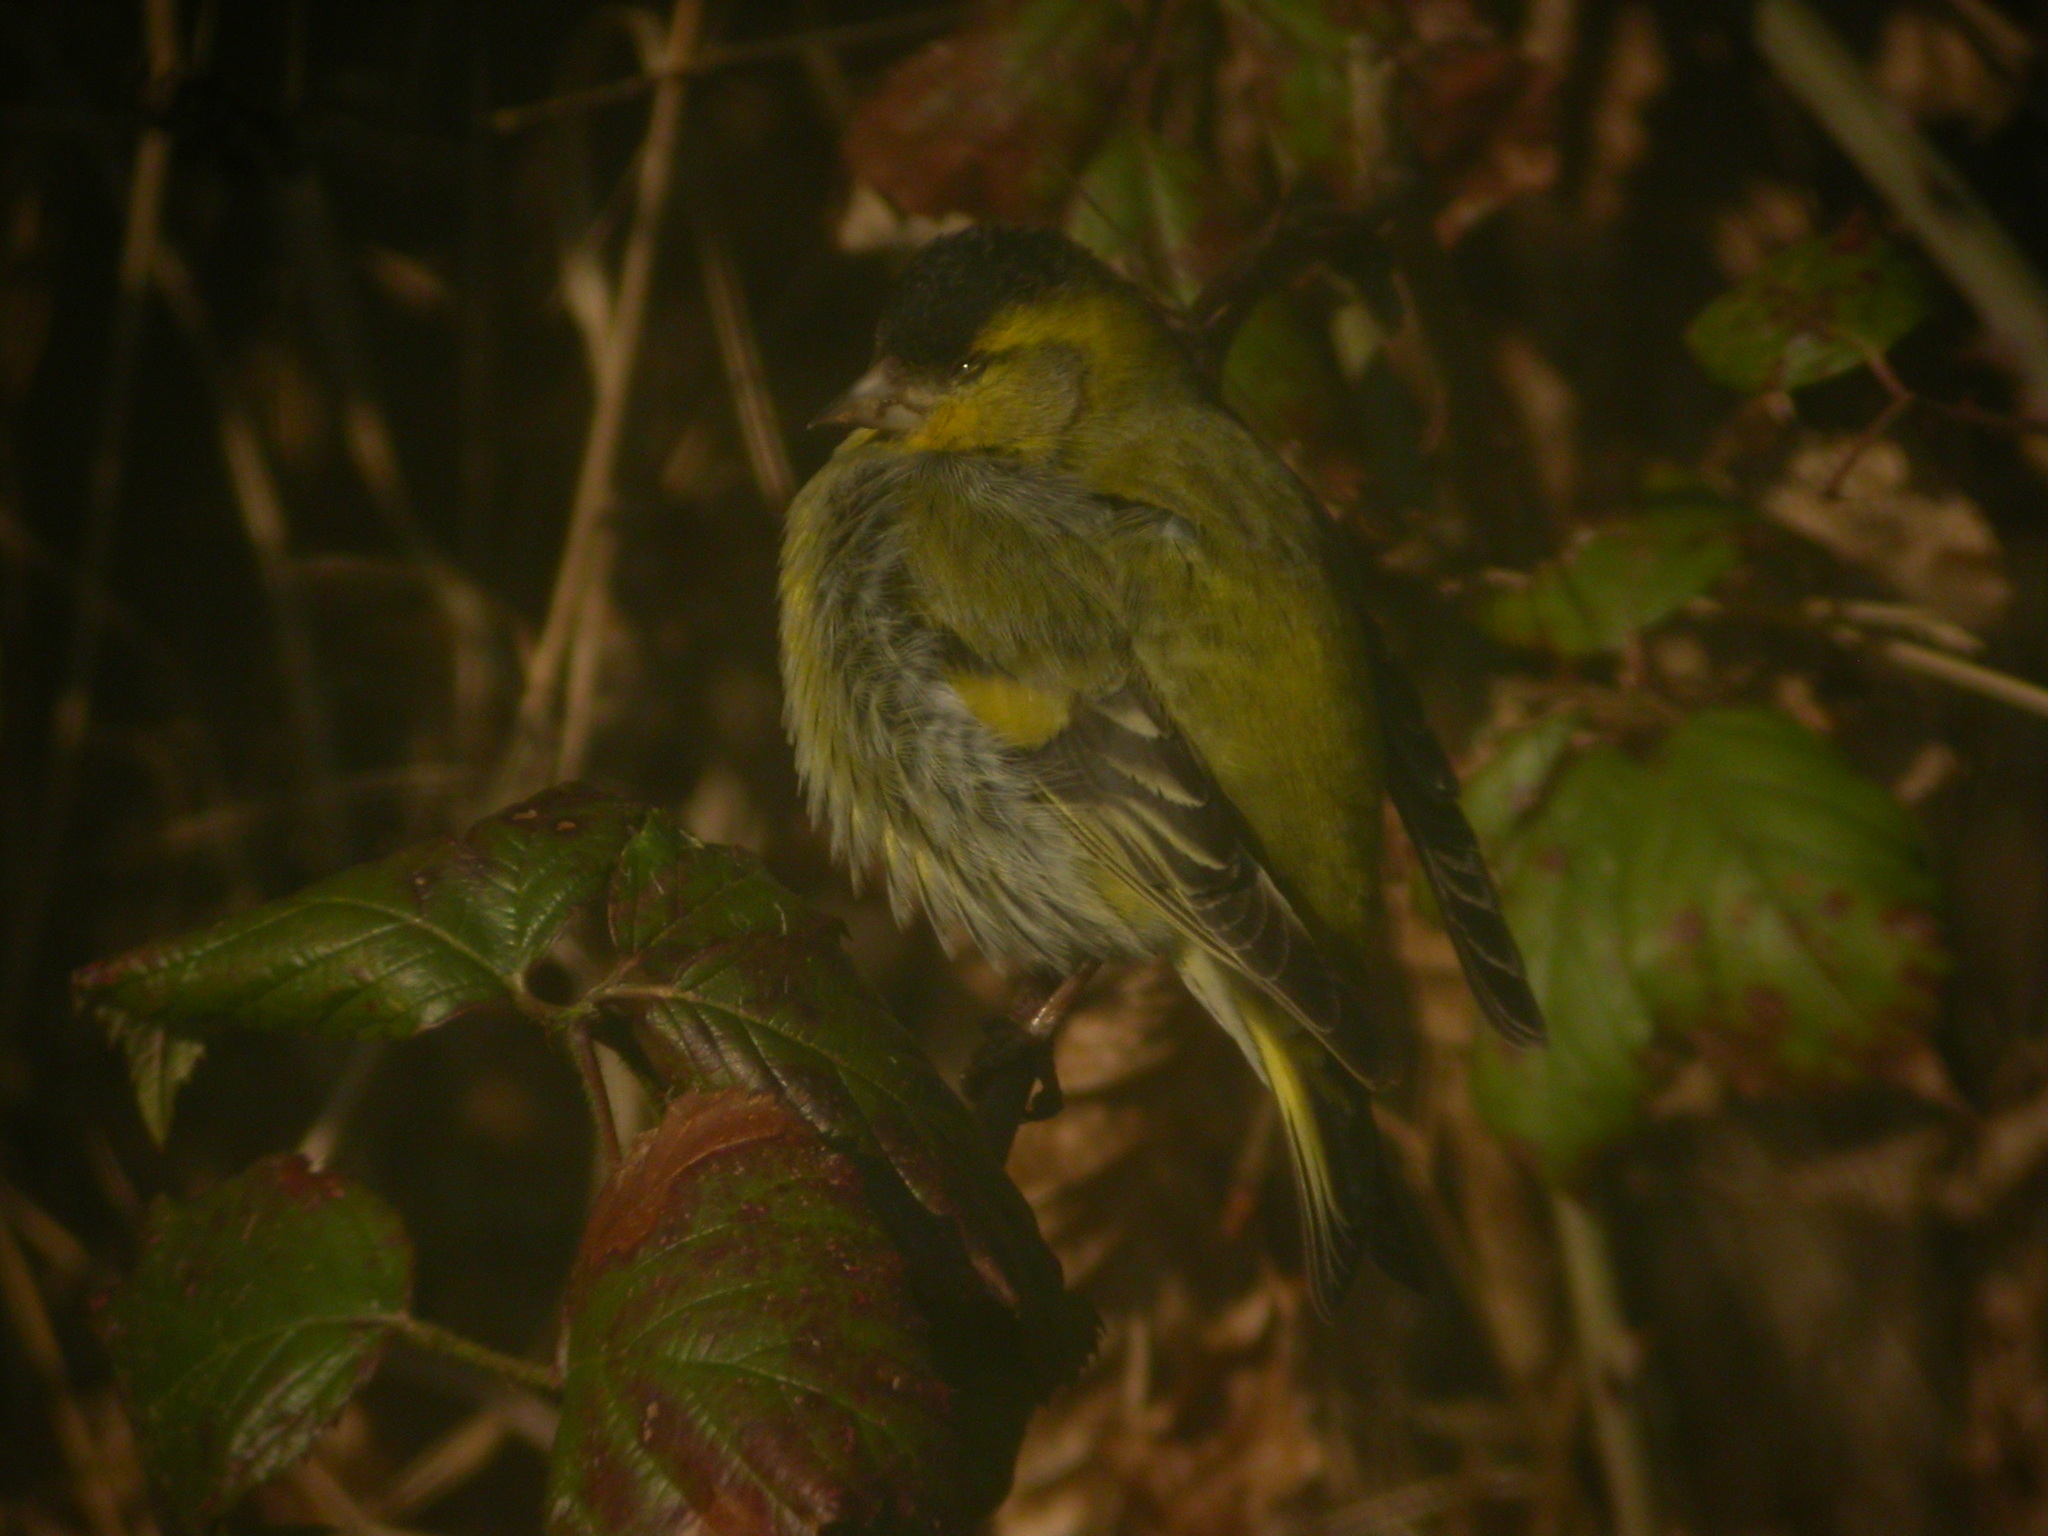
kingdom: Animalia
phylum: Chordata
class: Aves
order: Passeriformes
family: Fringillidae
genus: Spinus
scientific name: Spinus spinus
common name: Eurasian siskin
